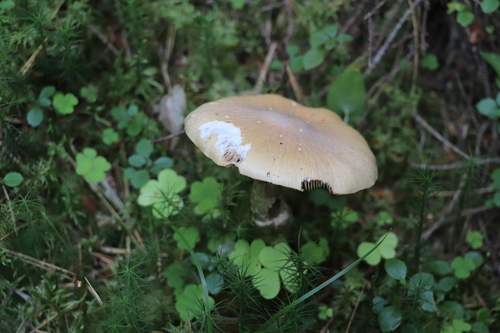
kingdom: Fungi
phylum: Basidiomycota
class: Agaricomycetes
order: Agaricales
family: Cortinariaceae
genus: Cortinarius
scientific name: Cortinarius caperatus
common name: The gypsy
